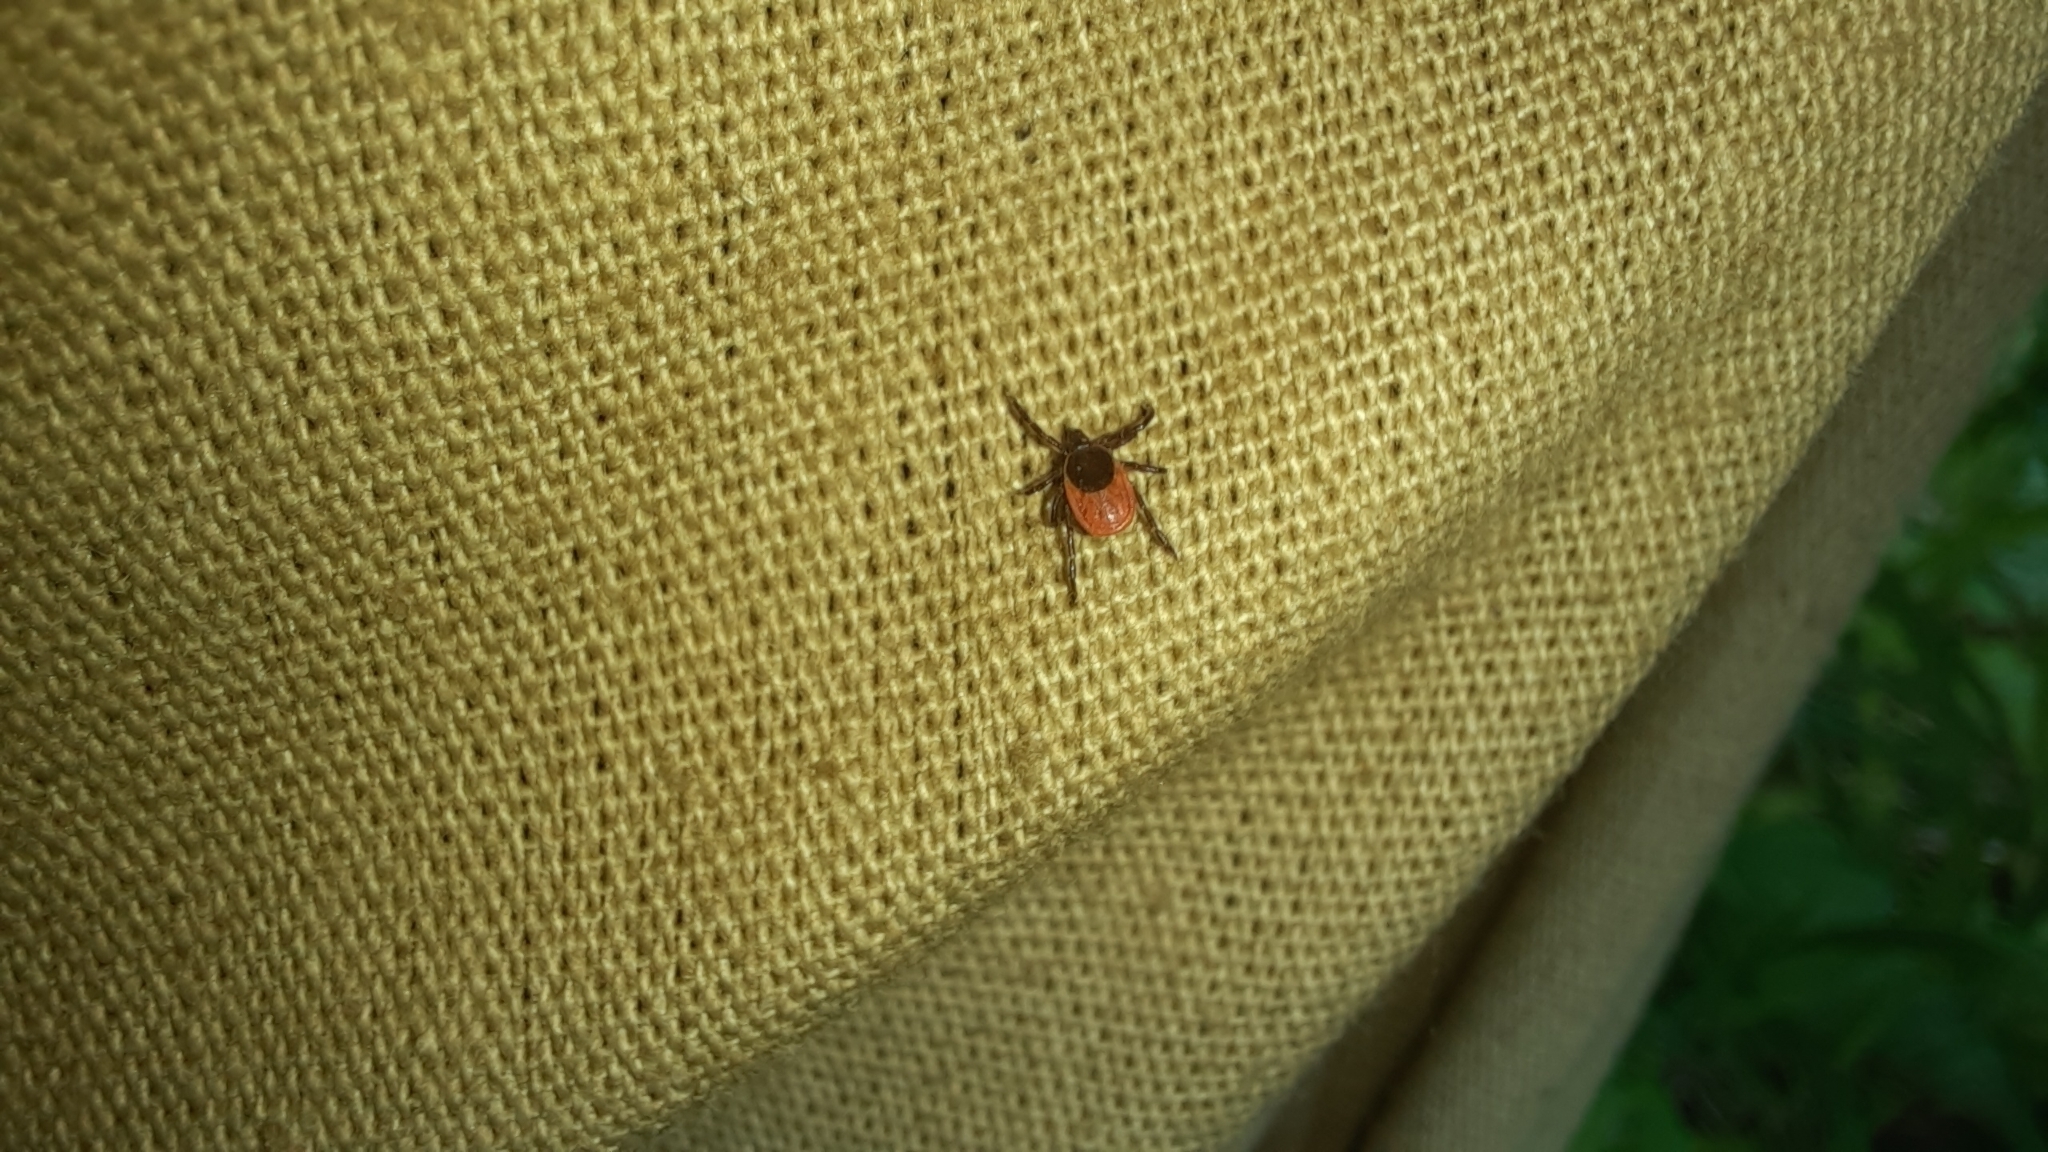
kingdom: Animalia
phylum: Arthropoda
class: Arachnida
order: Ixodida
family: Ixodidae
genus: Ixodes
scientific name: Ixodes persulcatus
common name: Taiga tick
